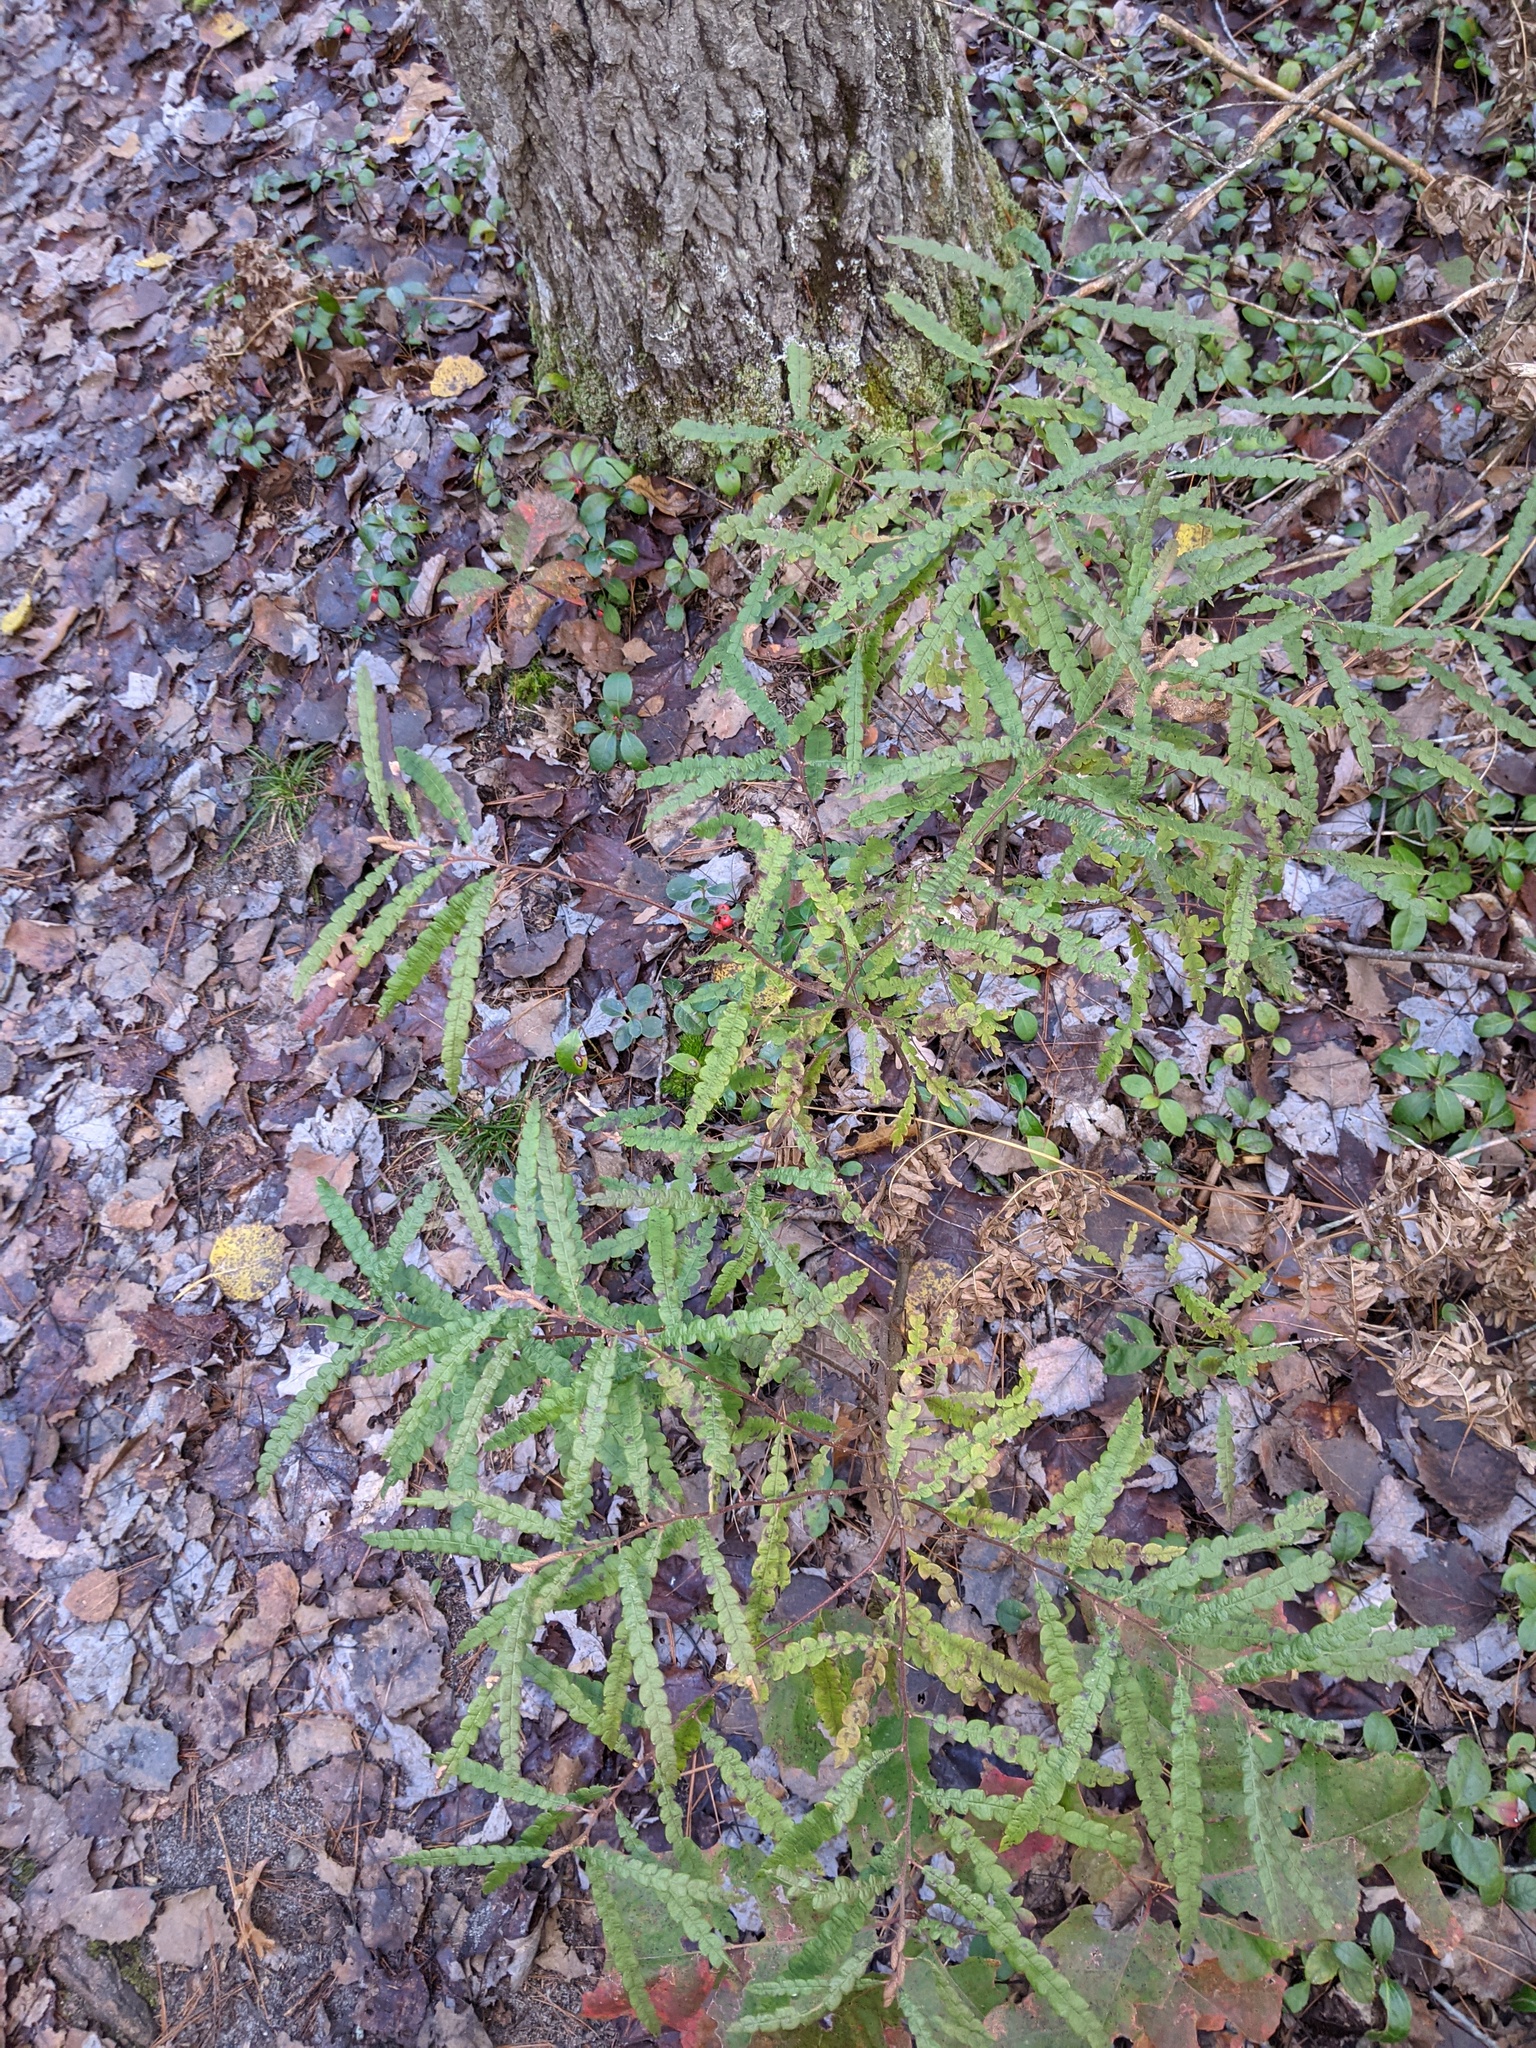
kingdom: Plantae
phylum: Tracheophyta
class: Magnoliopsida
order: Fagales
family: Myricaceae
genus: Comptonia
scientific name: Comptonia peregrina
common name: Sweet-fern
